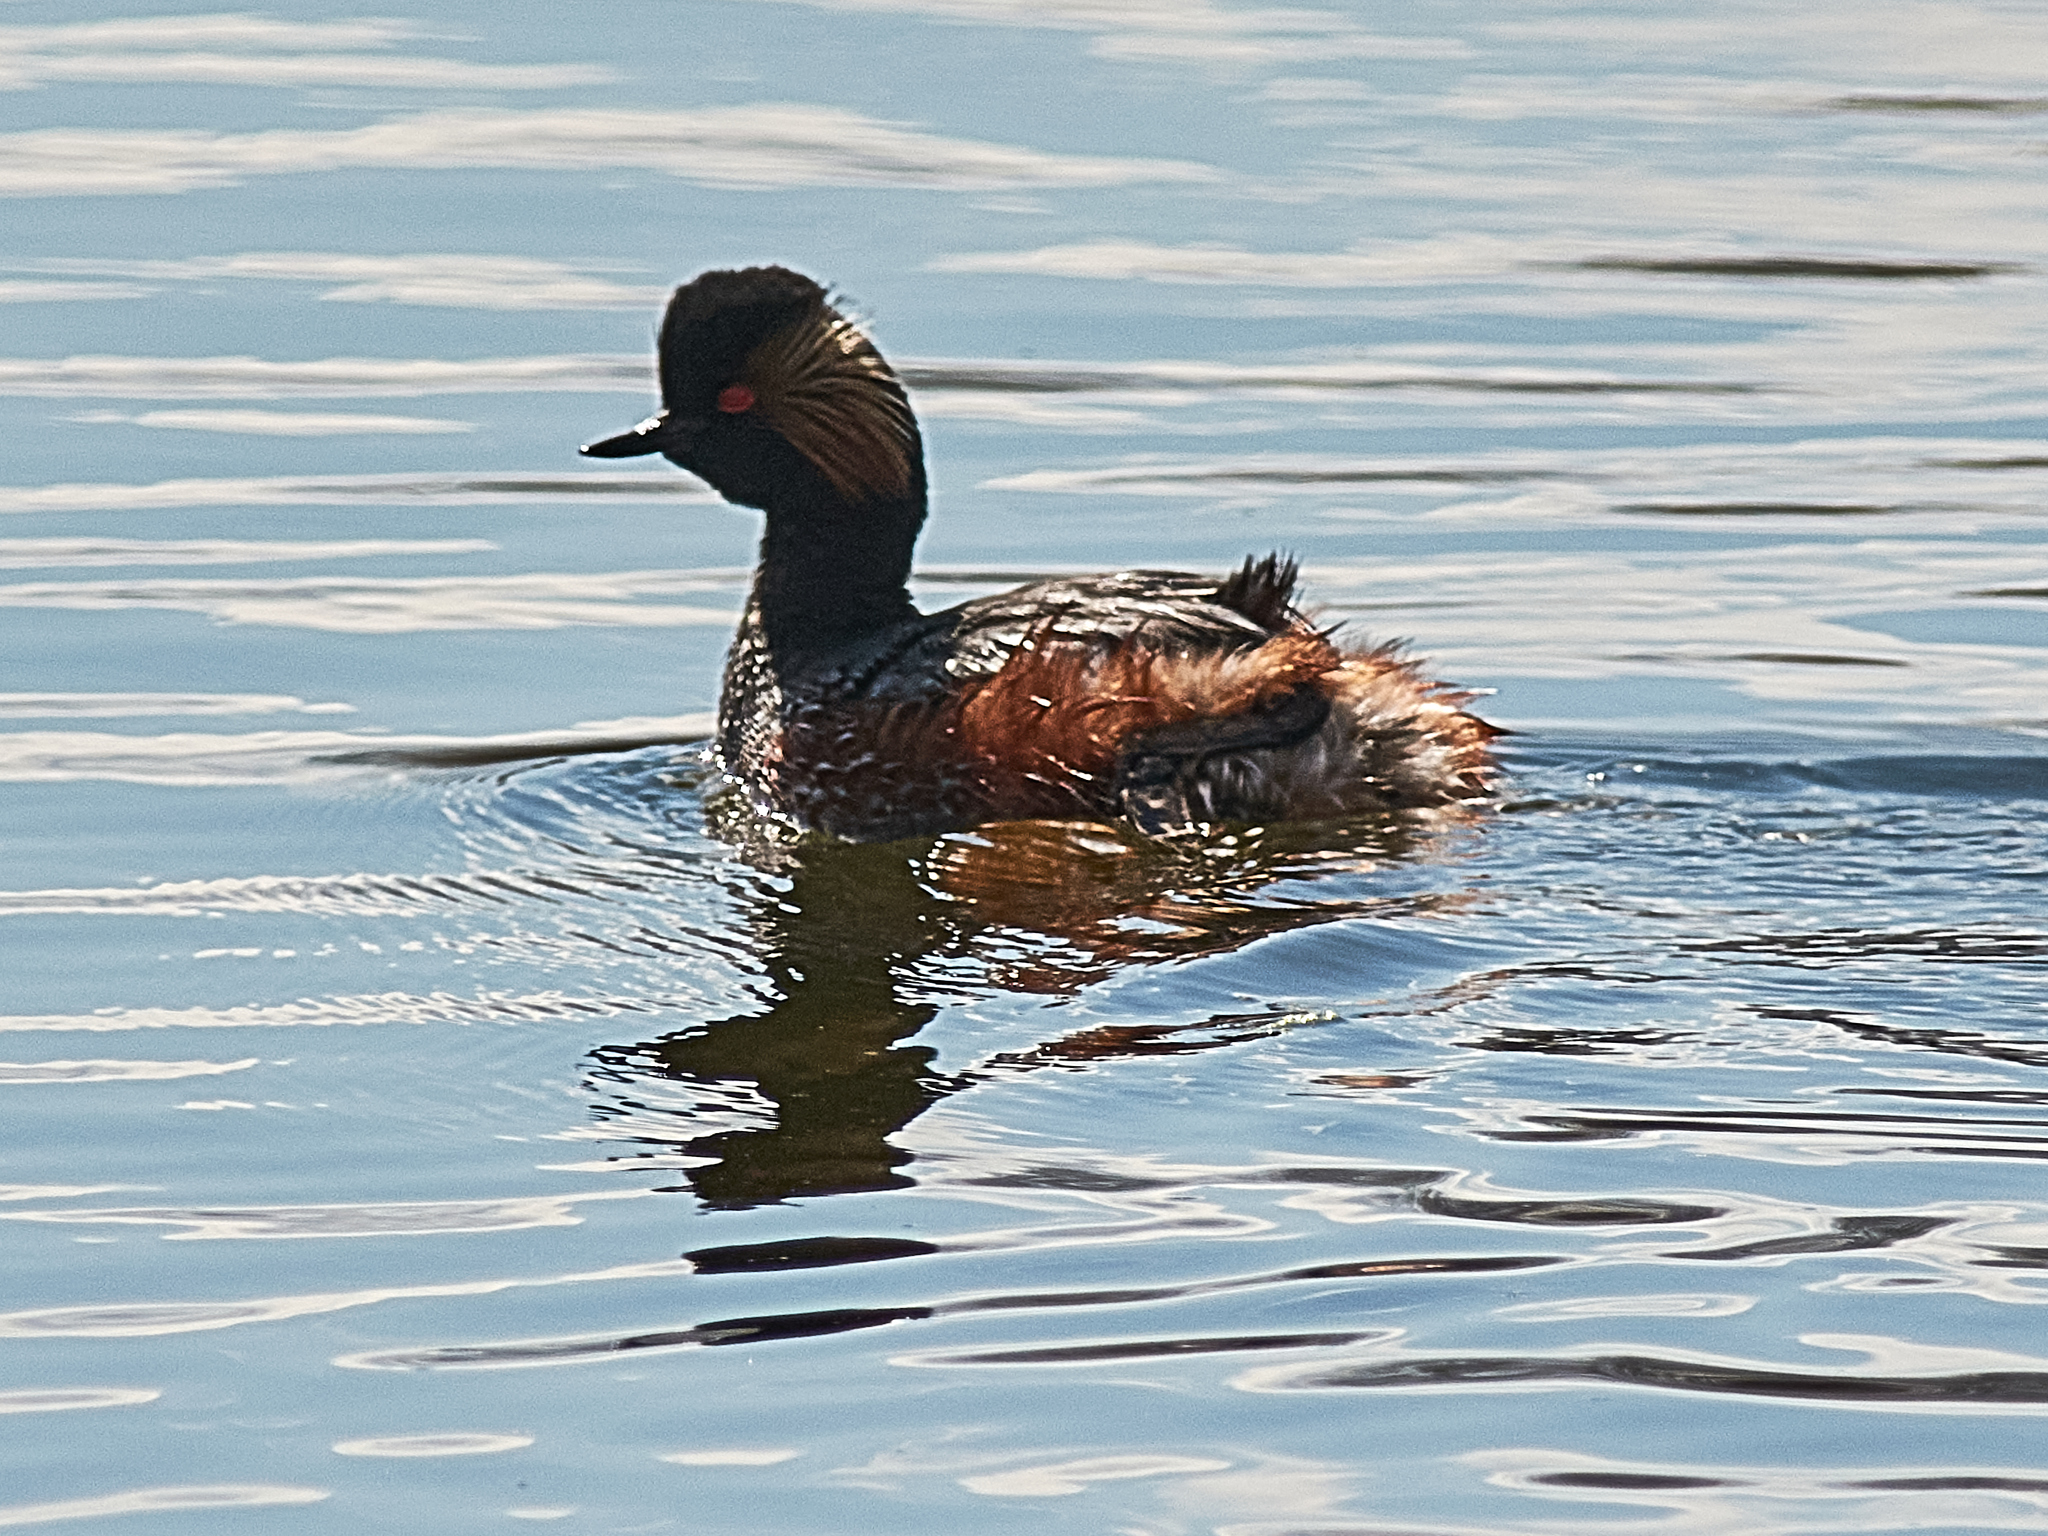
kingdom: Animalia
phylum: Chordata
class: Aves
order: Podicipediformes
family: Podicipedidae
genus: Podiceps
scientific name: Podiceps nigricollis
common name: Black-necked grebe
